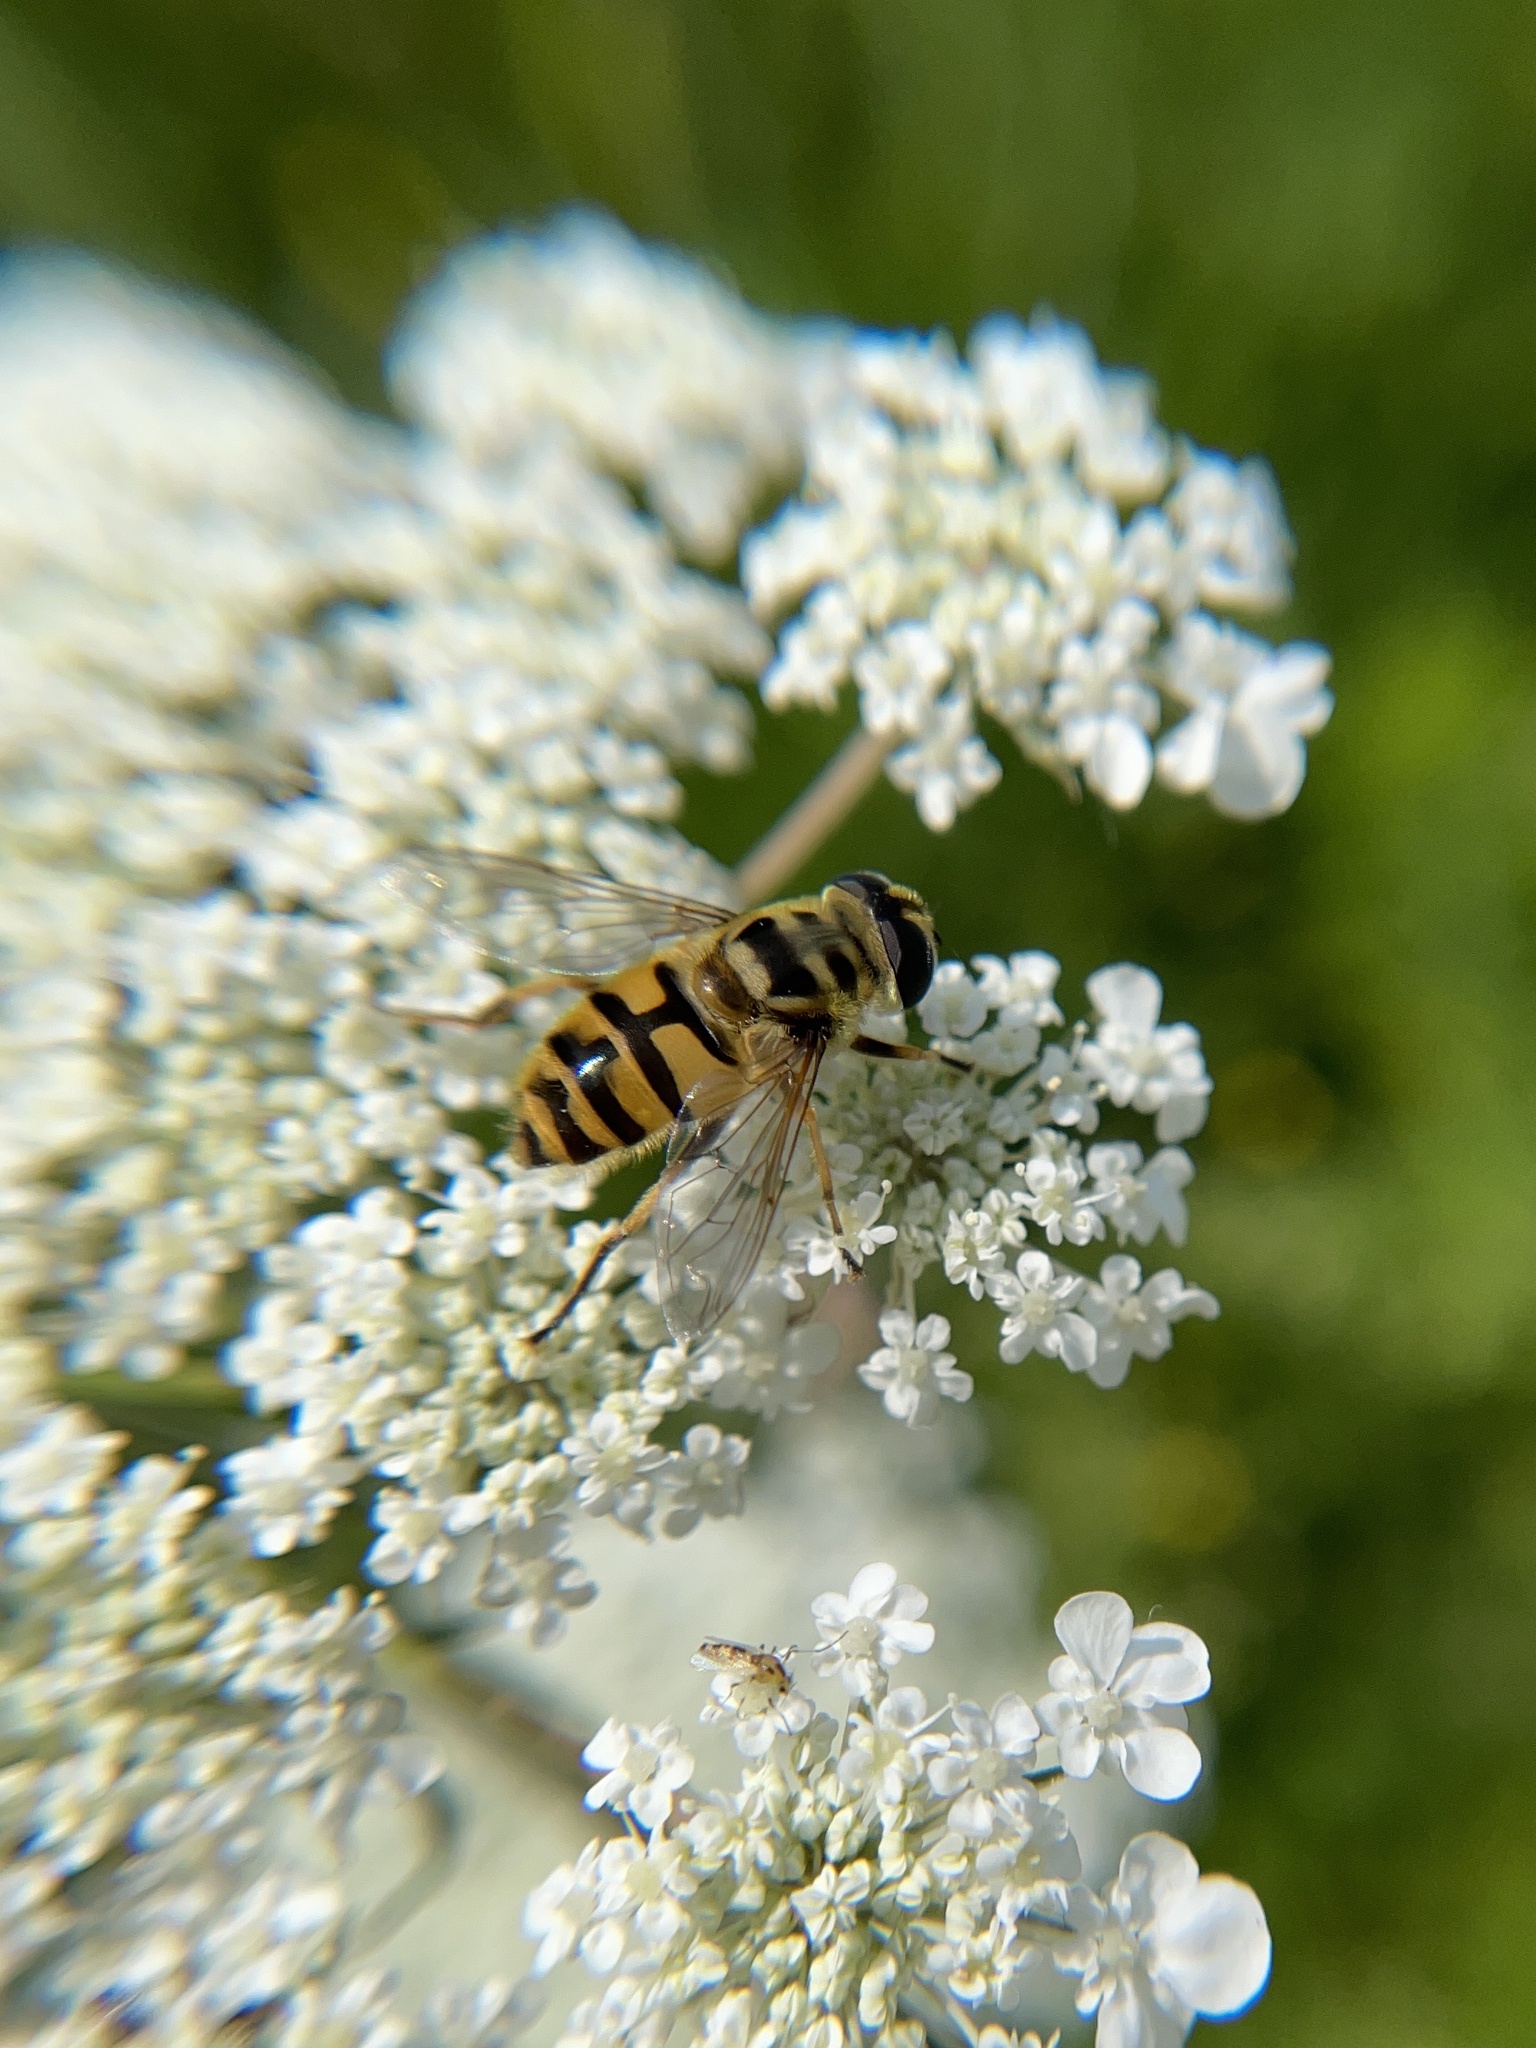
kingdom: Animalia
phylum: Arthropoda
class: Insecta
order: Diptera
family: Syrphidae
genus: Myathropa
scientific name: Myathropa florea
